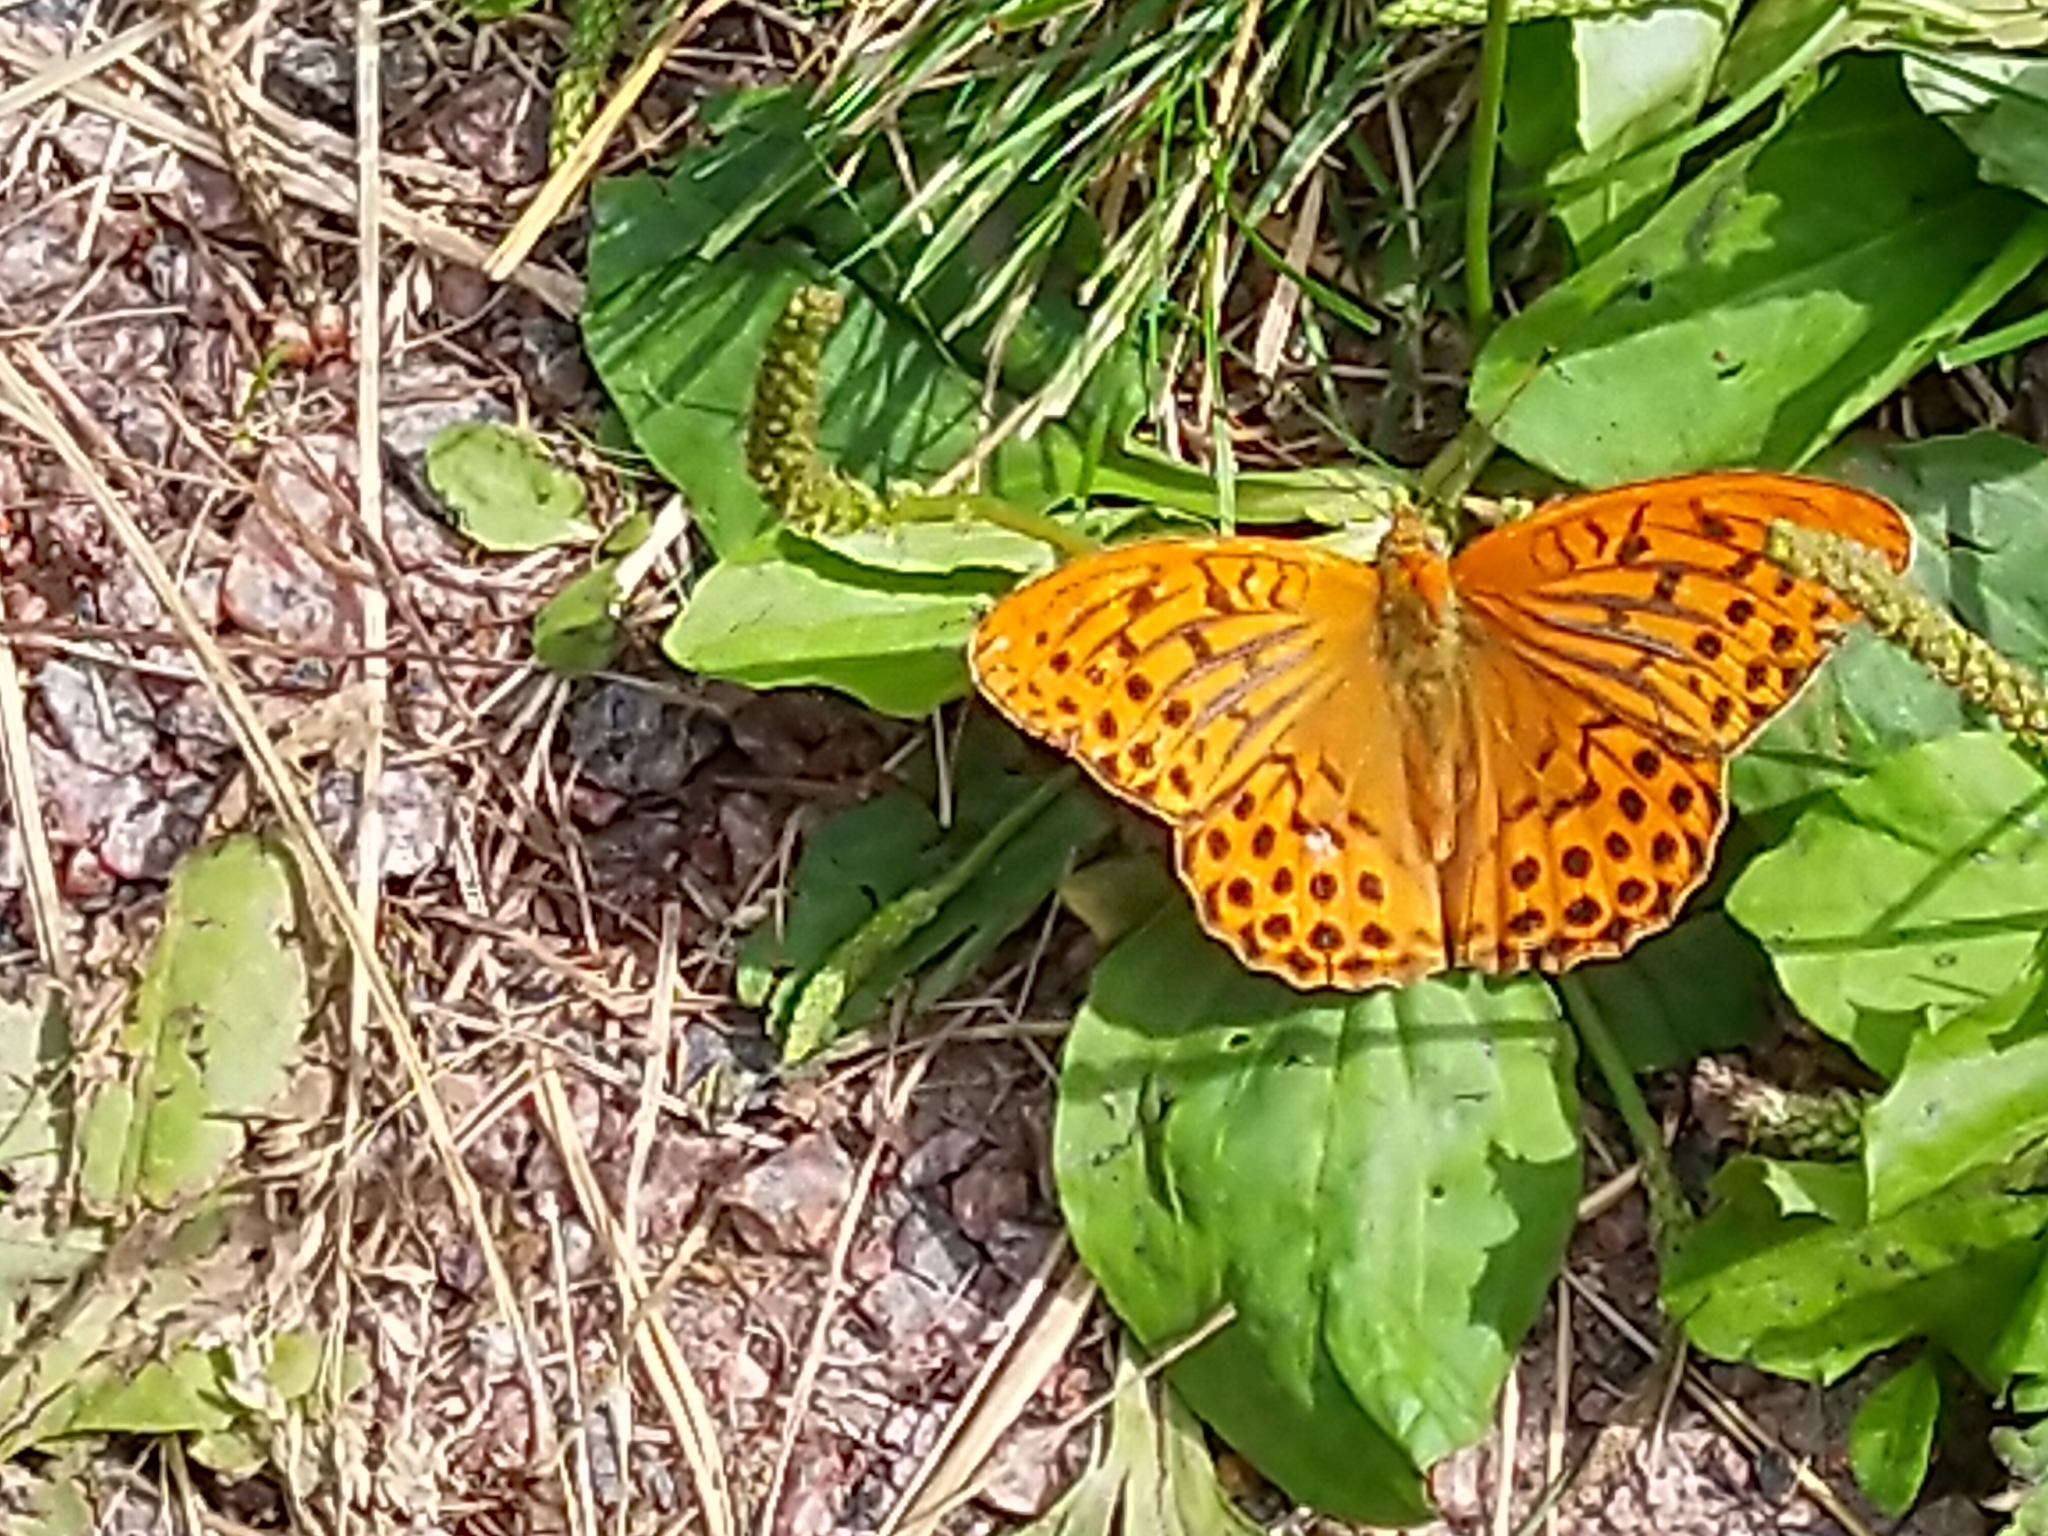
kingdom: Animalia
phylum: Arthropoda
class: Insecta
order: Lepidoptera
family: Nymphalidae
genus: Argynnis
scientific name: Argynnis paphia
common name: Silver-washed fritillary
